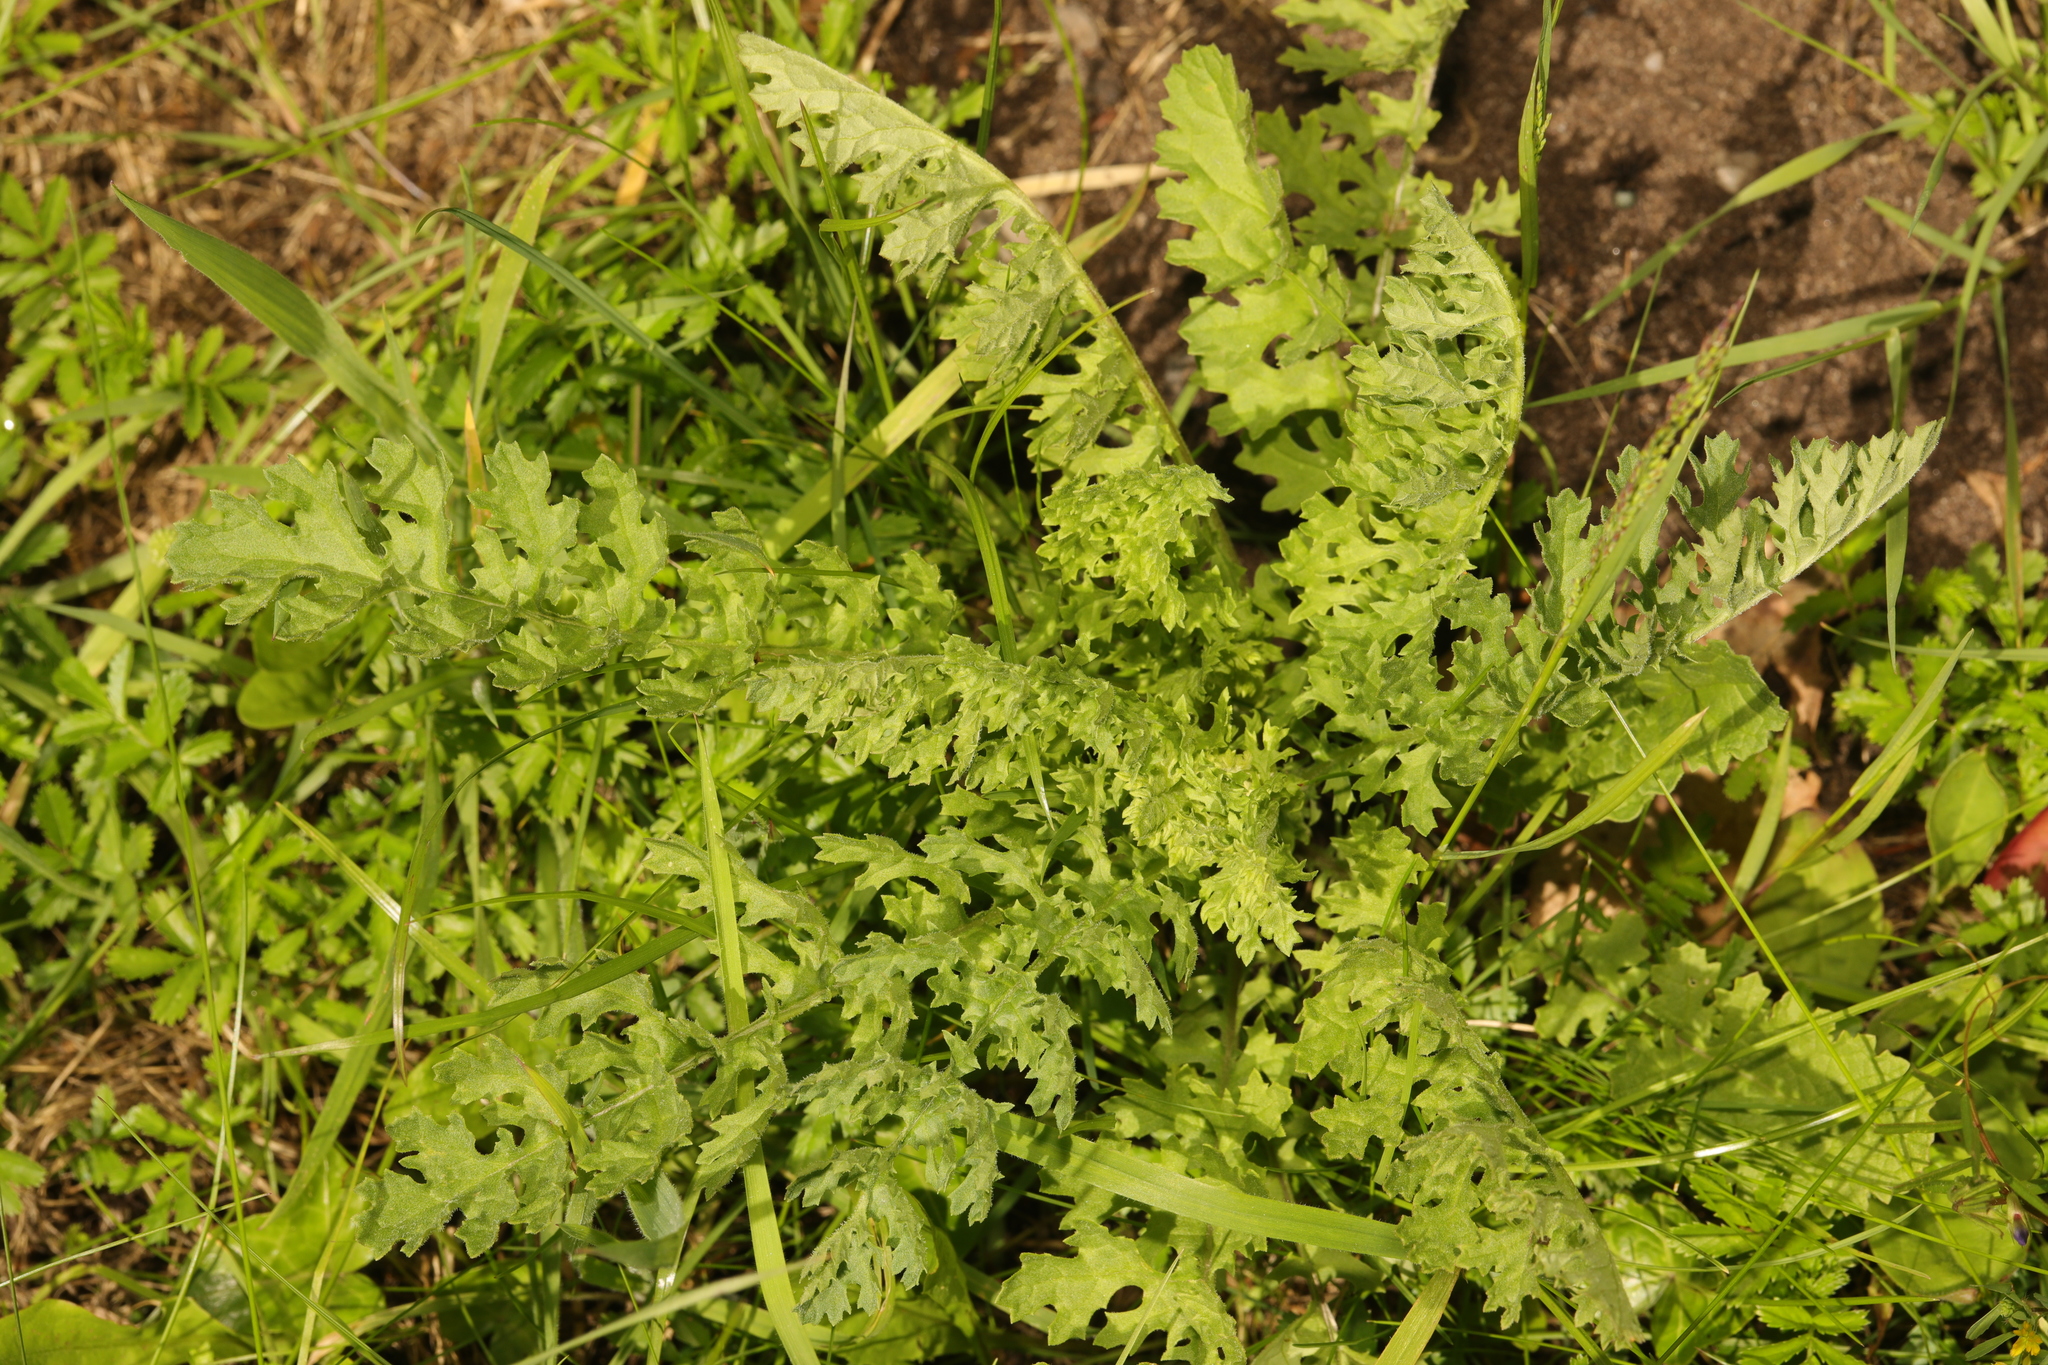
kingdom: Plantae
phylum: Tracheophyta
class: Magnoliopsida
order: Asterales
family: Asteraceae
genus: Jacobaea
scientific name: Jacobaea vulgaris
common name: Stinking willie
